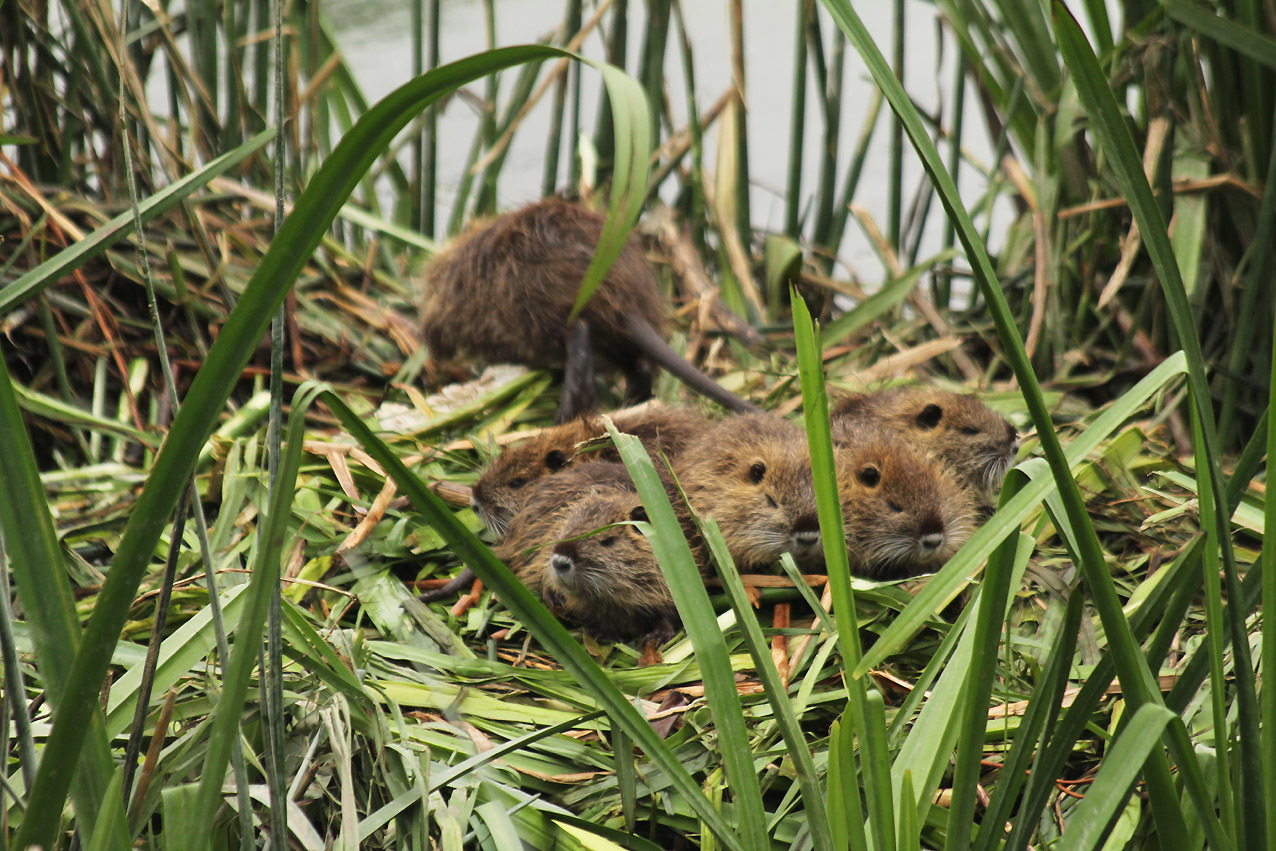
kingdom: Animalia
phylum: Chordata
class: Mammalia
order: Rodentia
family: Myocastoridae
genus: Myocastor
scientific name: Myocastor coypus
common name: Coypu
